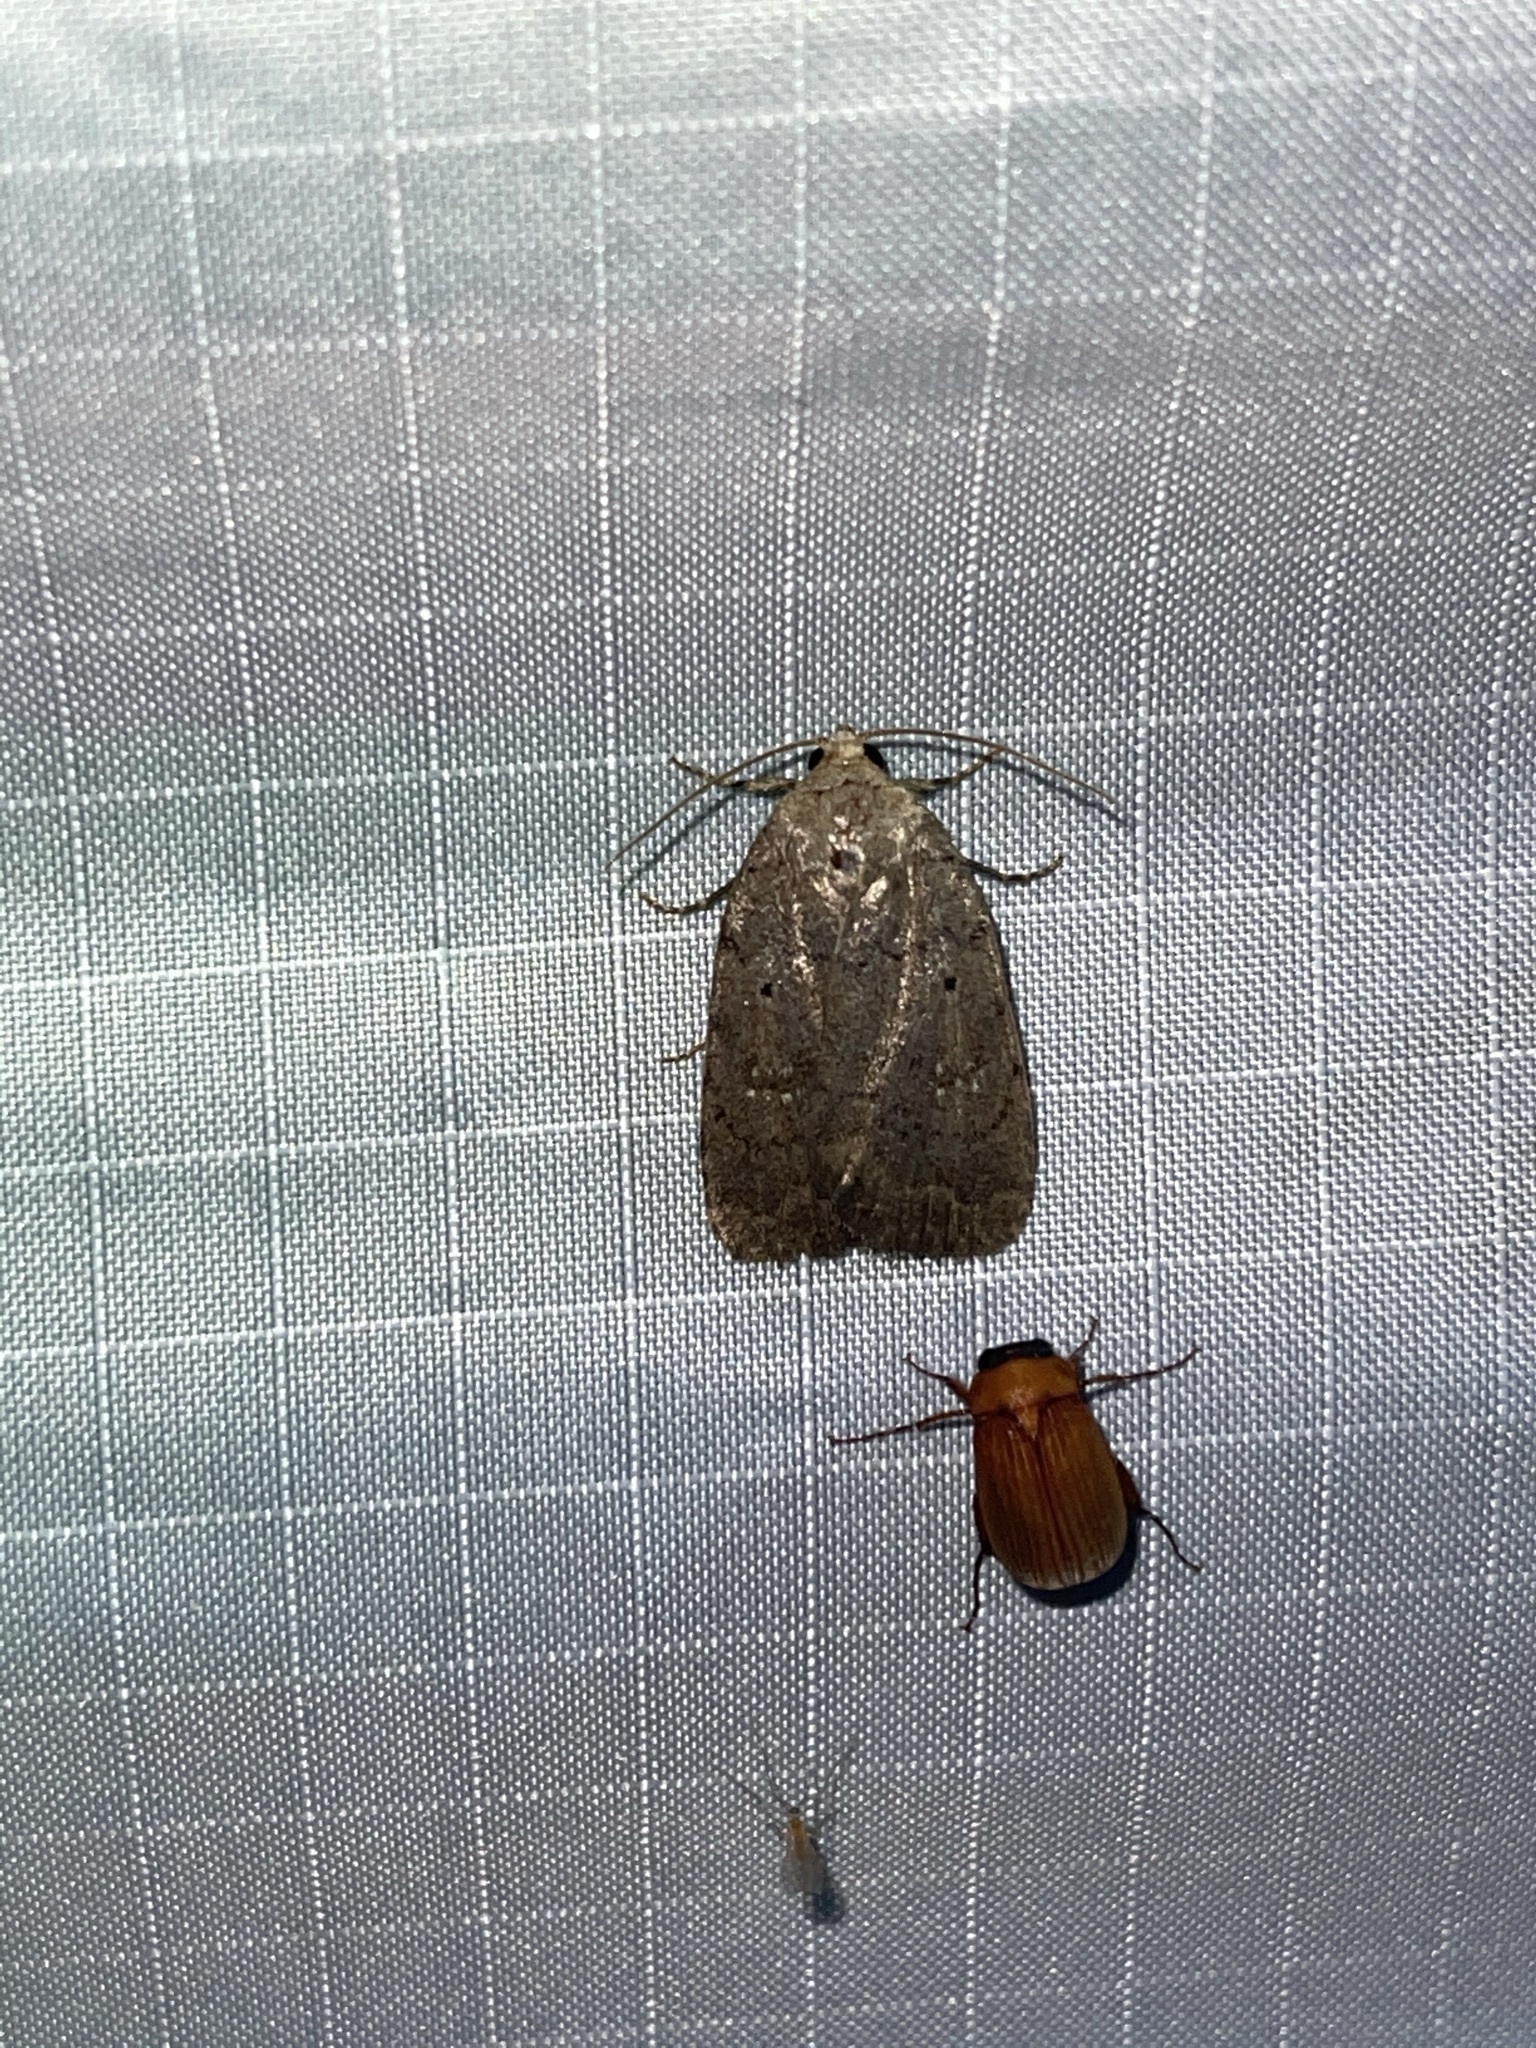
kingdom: Animalia
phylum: Arthropoda
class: Insecta
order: Lepidoptera
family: Noctuidae
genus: Athetis
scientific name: Athetis tarda
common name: Slowpoke moth
